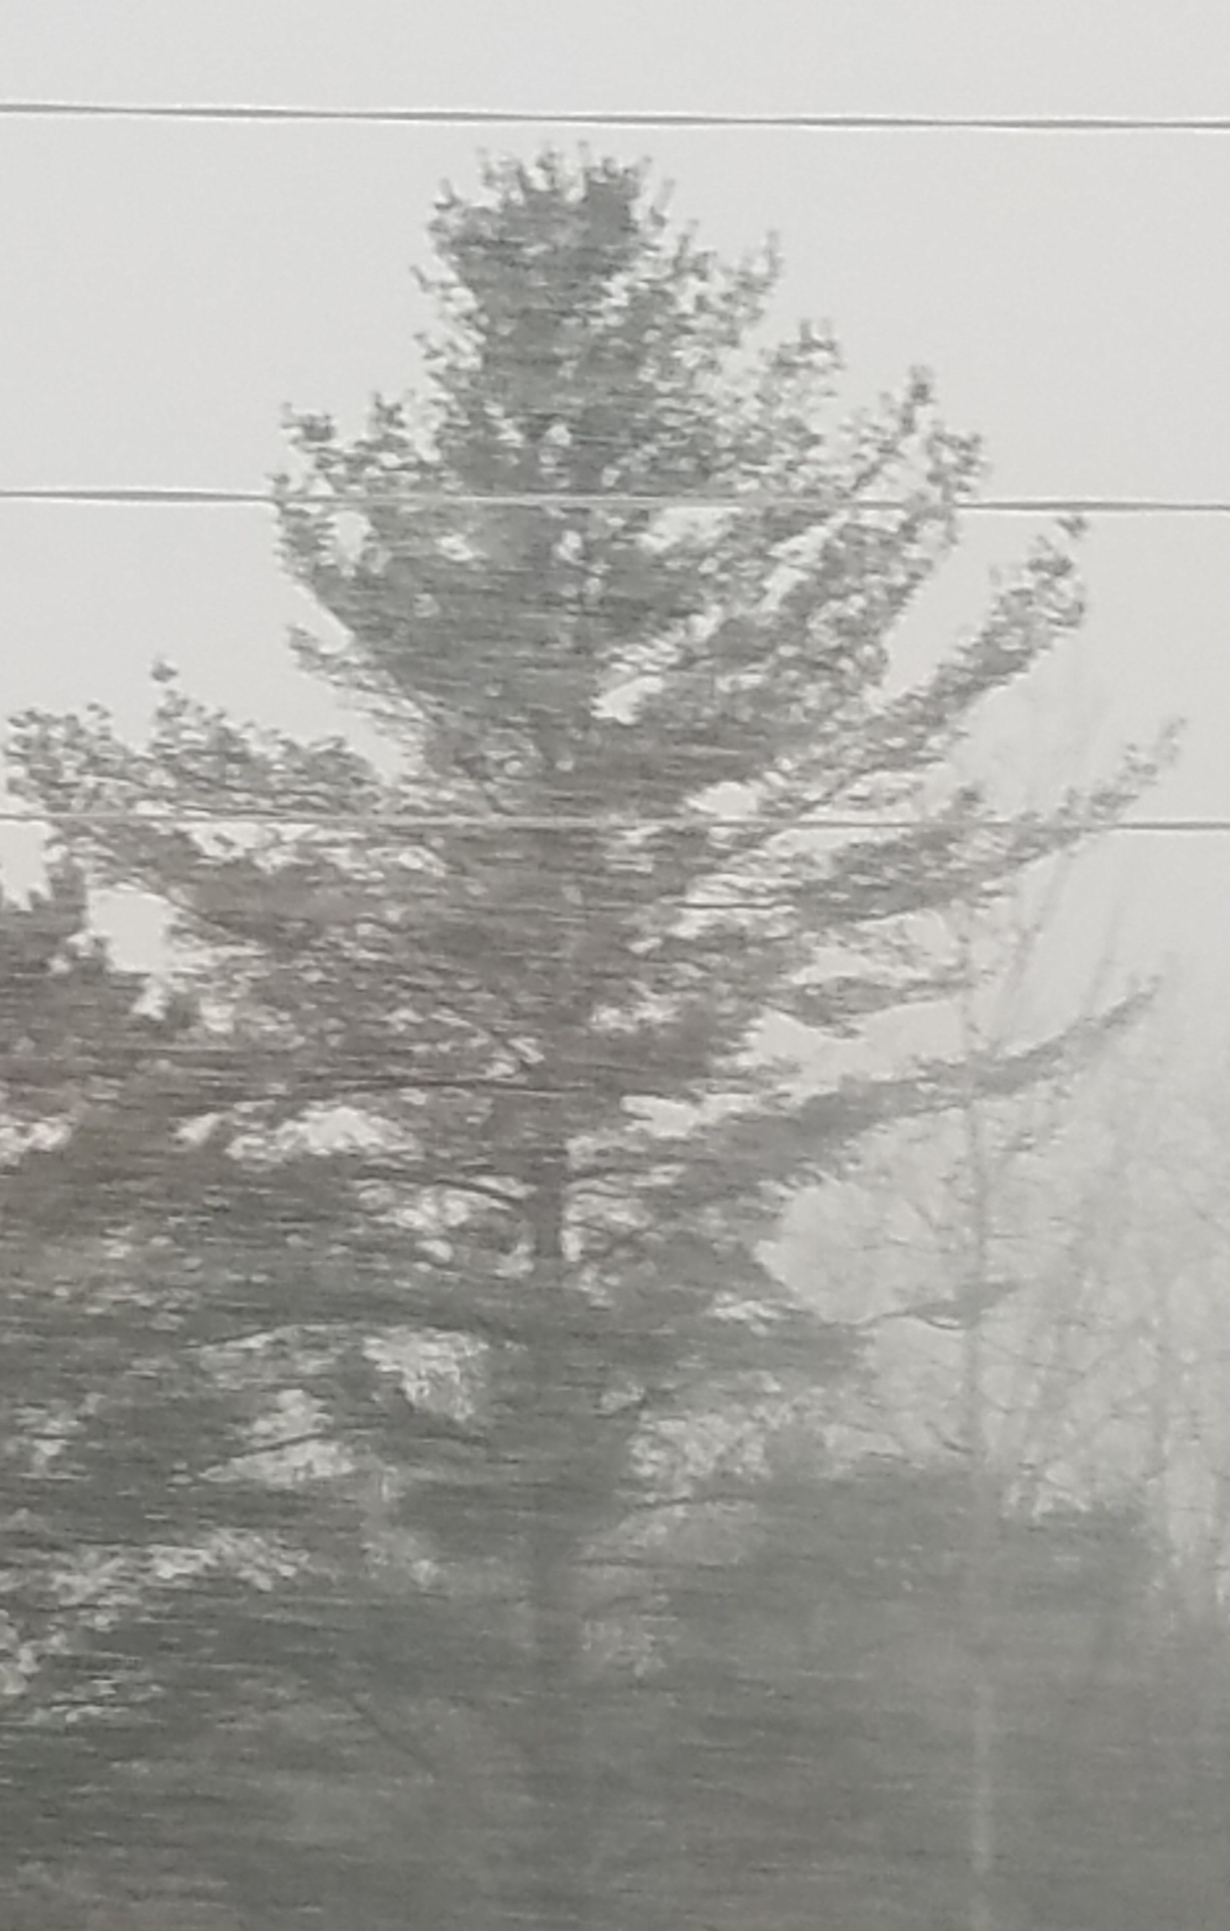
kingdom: Plantae
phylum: Tracheophyta
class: Pinopsida
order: Pinales
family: Pinaceae
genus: Pinus
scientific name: Pinus strobus
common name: Weymouth pine
